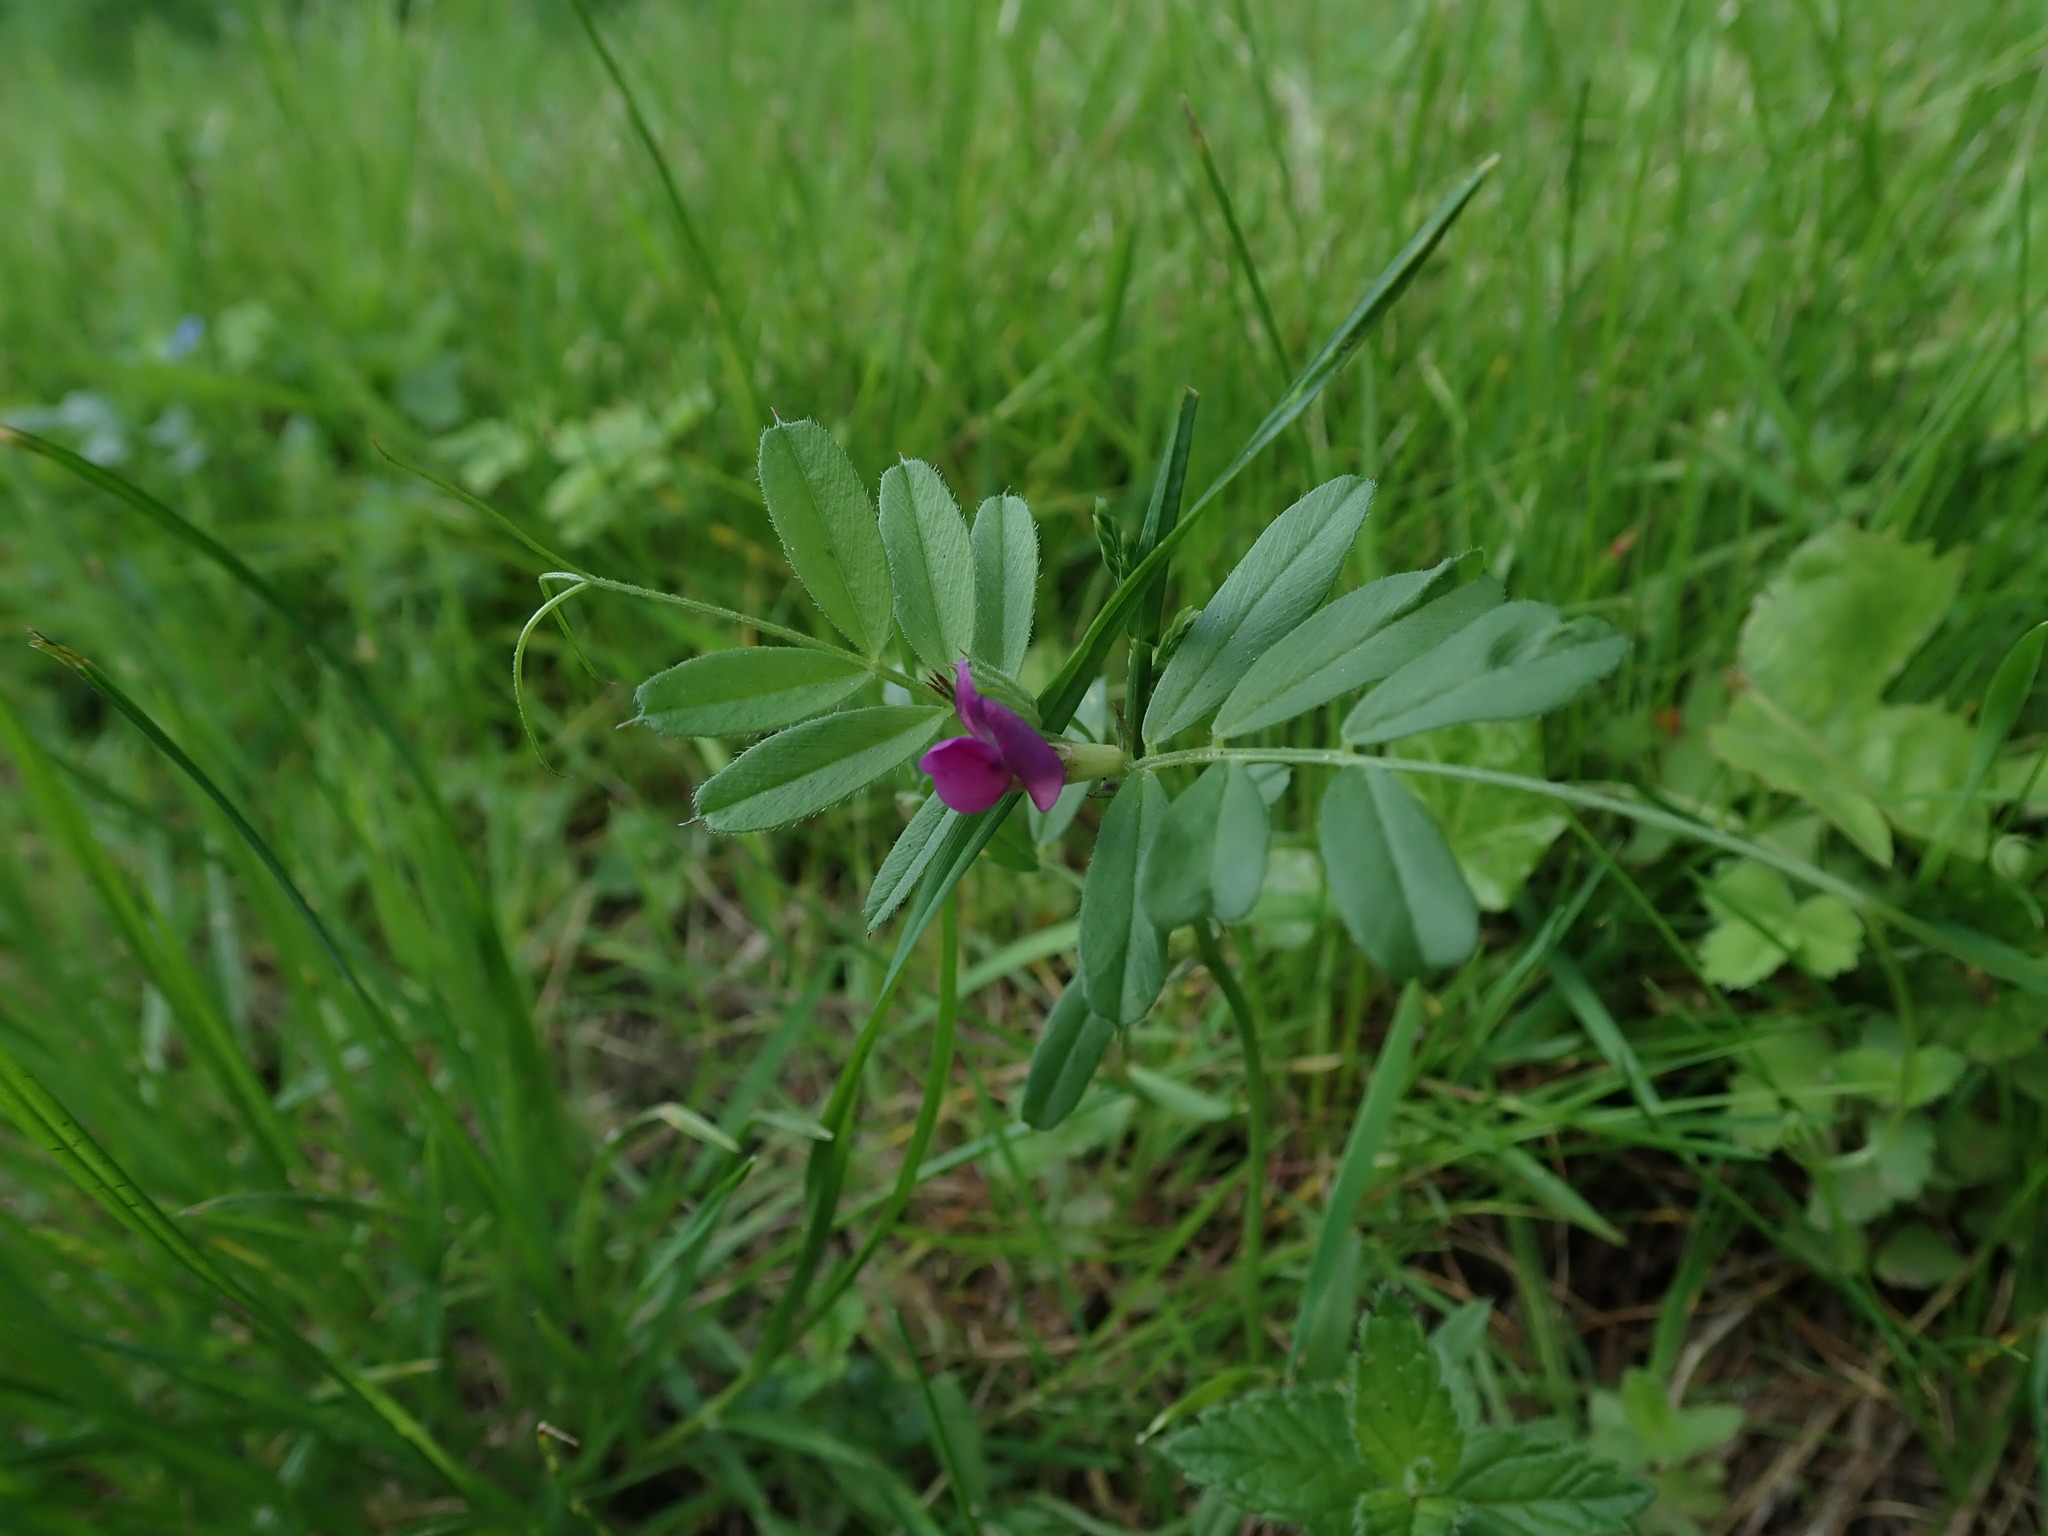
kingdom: Plantae
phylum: Tracheophyta
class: Magnoliopsida
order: Fabales
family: Fabaceae
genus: Vicia
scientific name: Vicia sativa
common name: Garden vetch
